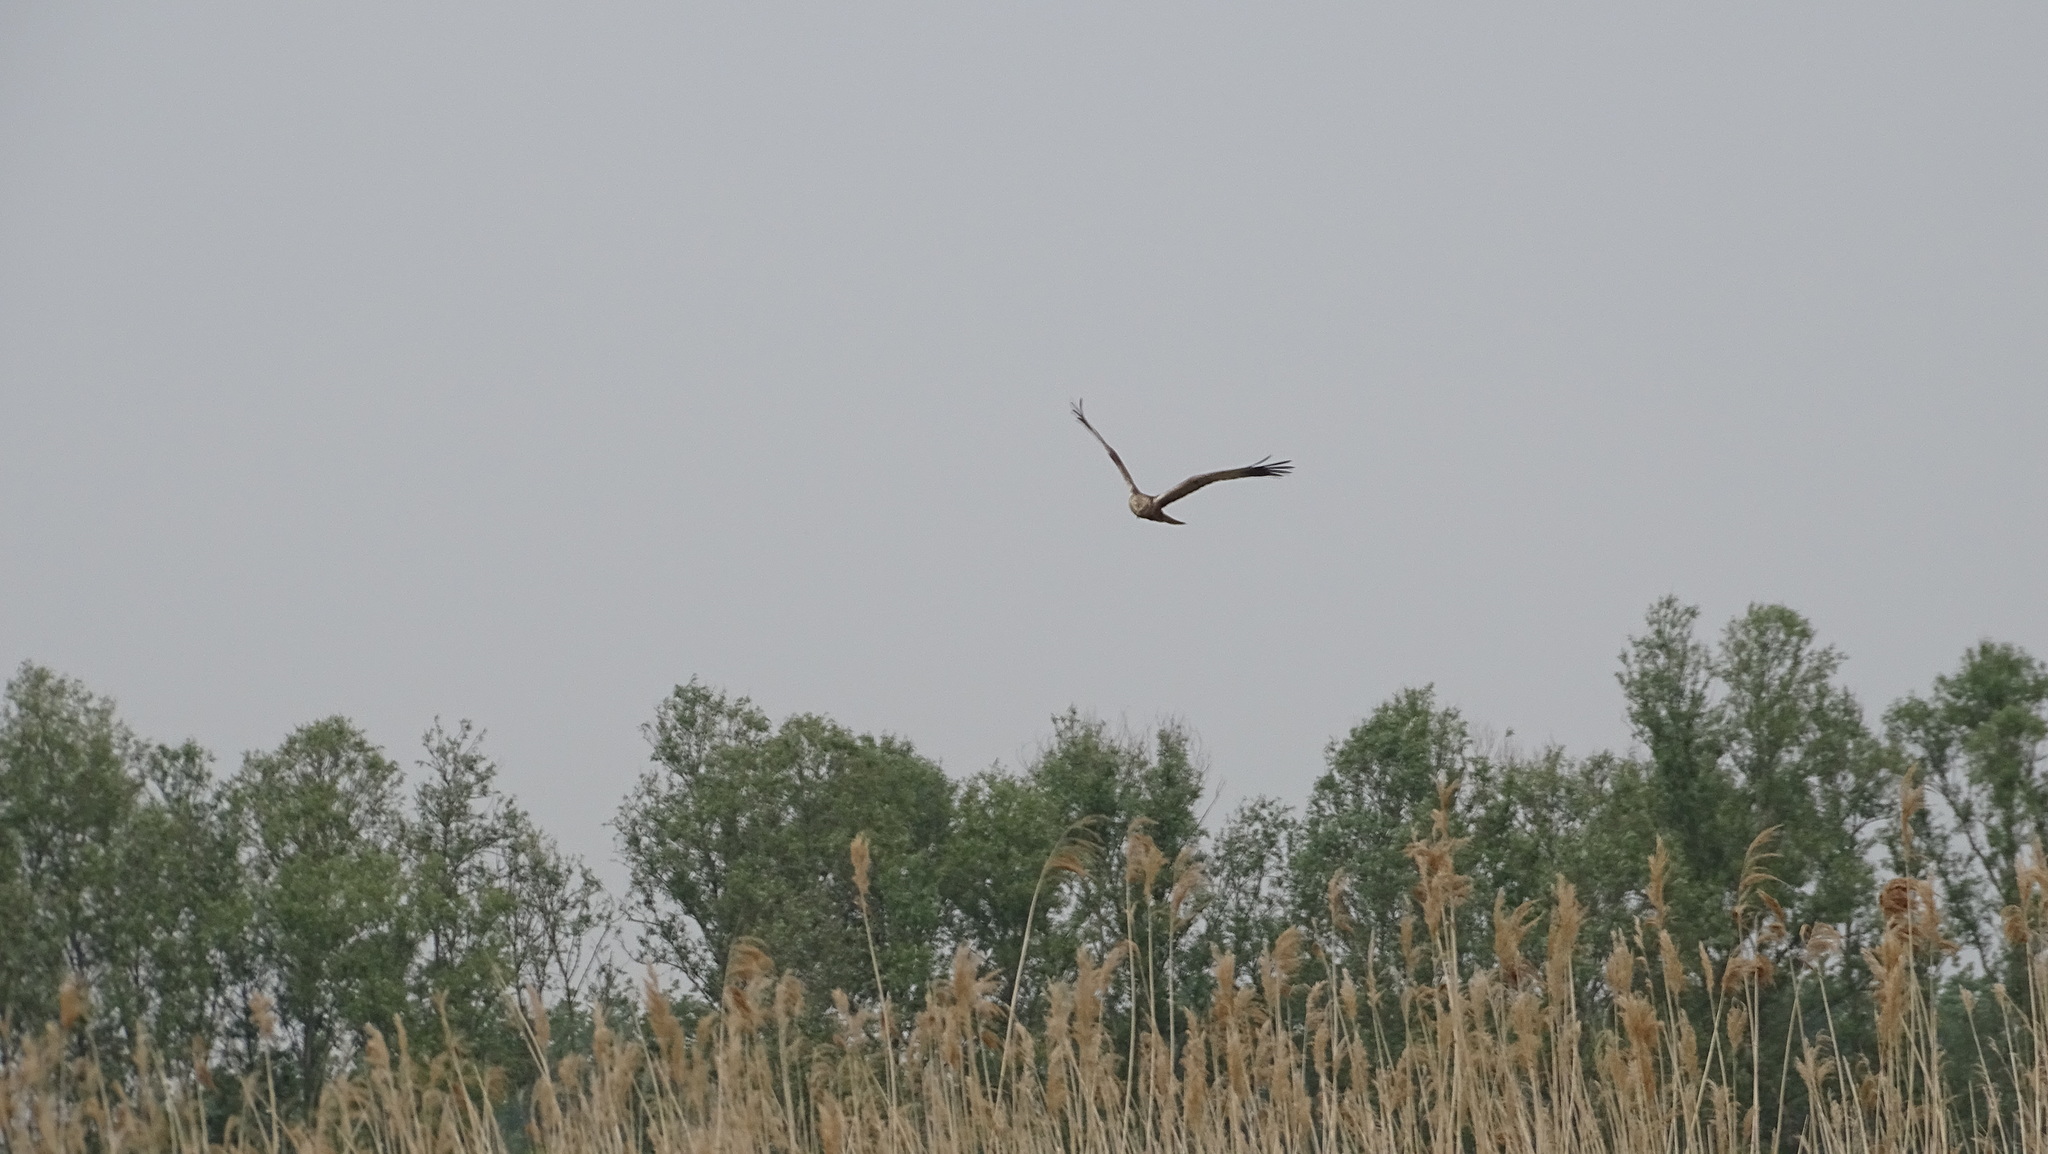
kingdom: Animalia
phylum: Chordata
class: Aves
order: Accipitriformes
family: Accipitridae
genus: Circus
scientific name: Circus aeruginosus
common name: Western marsh harrier
